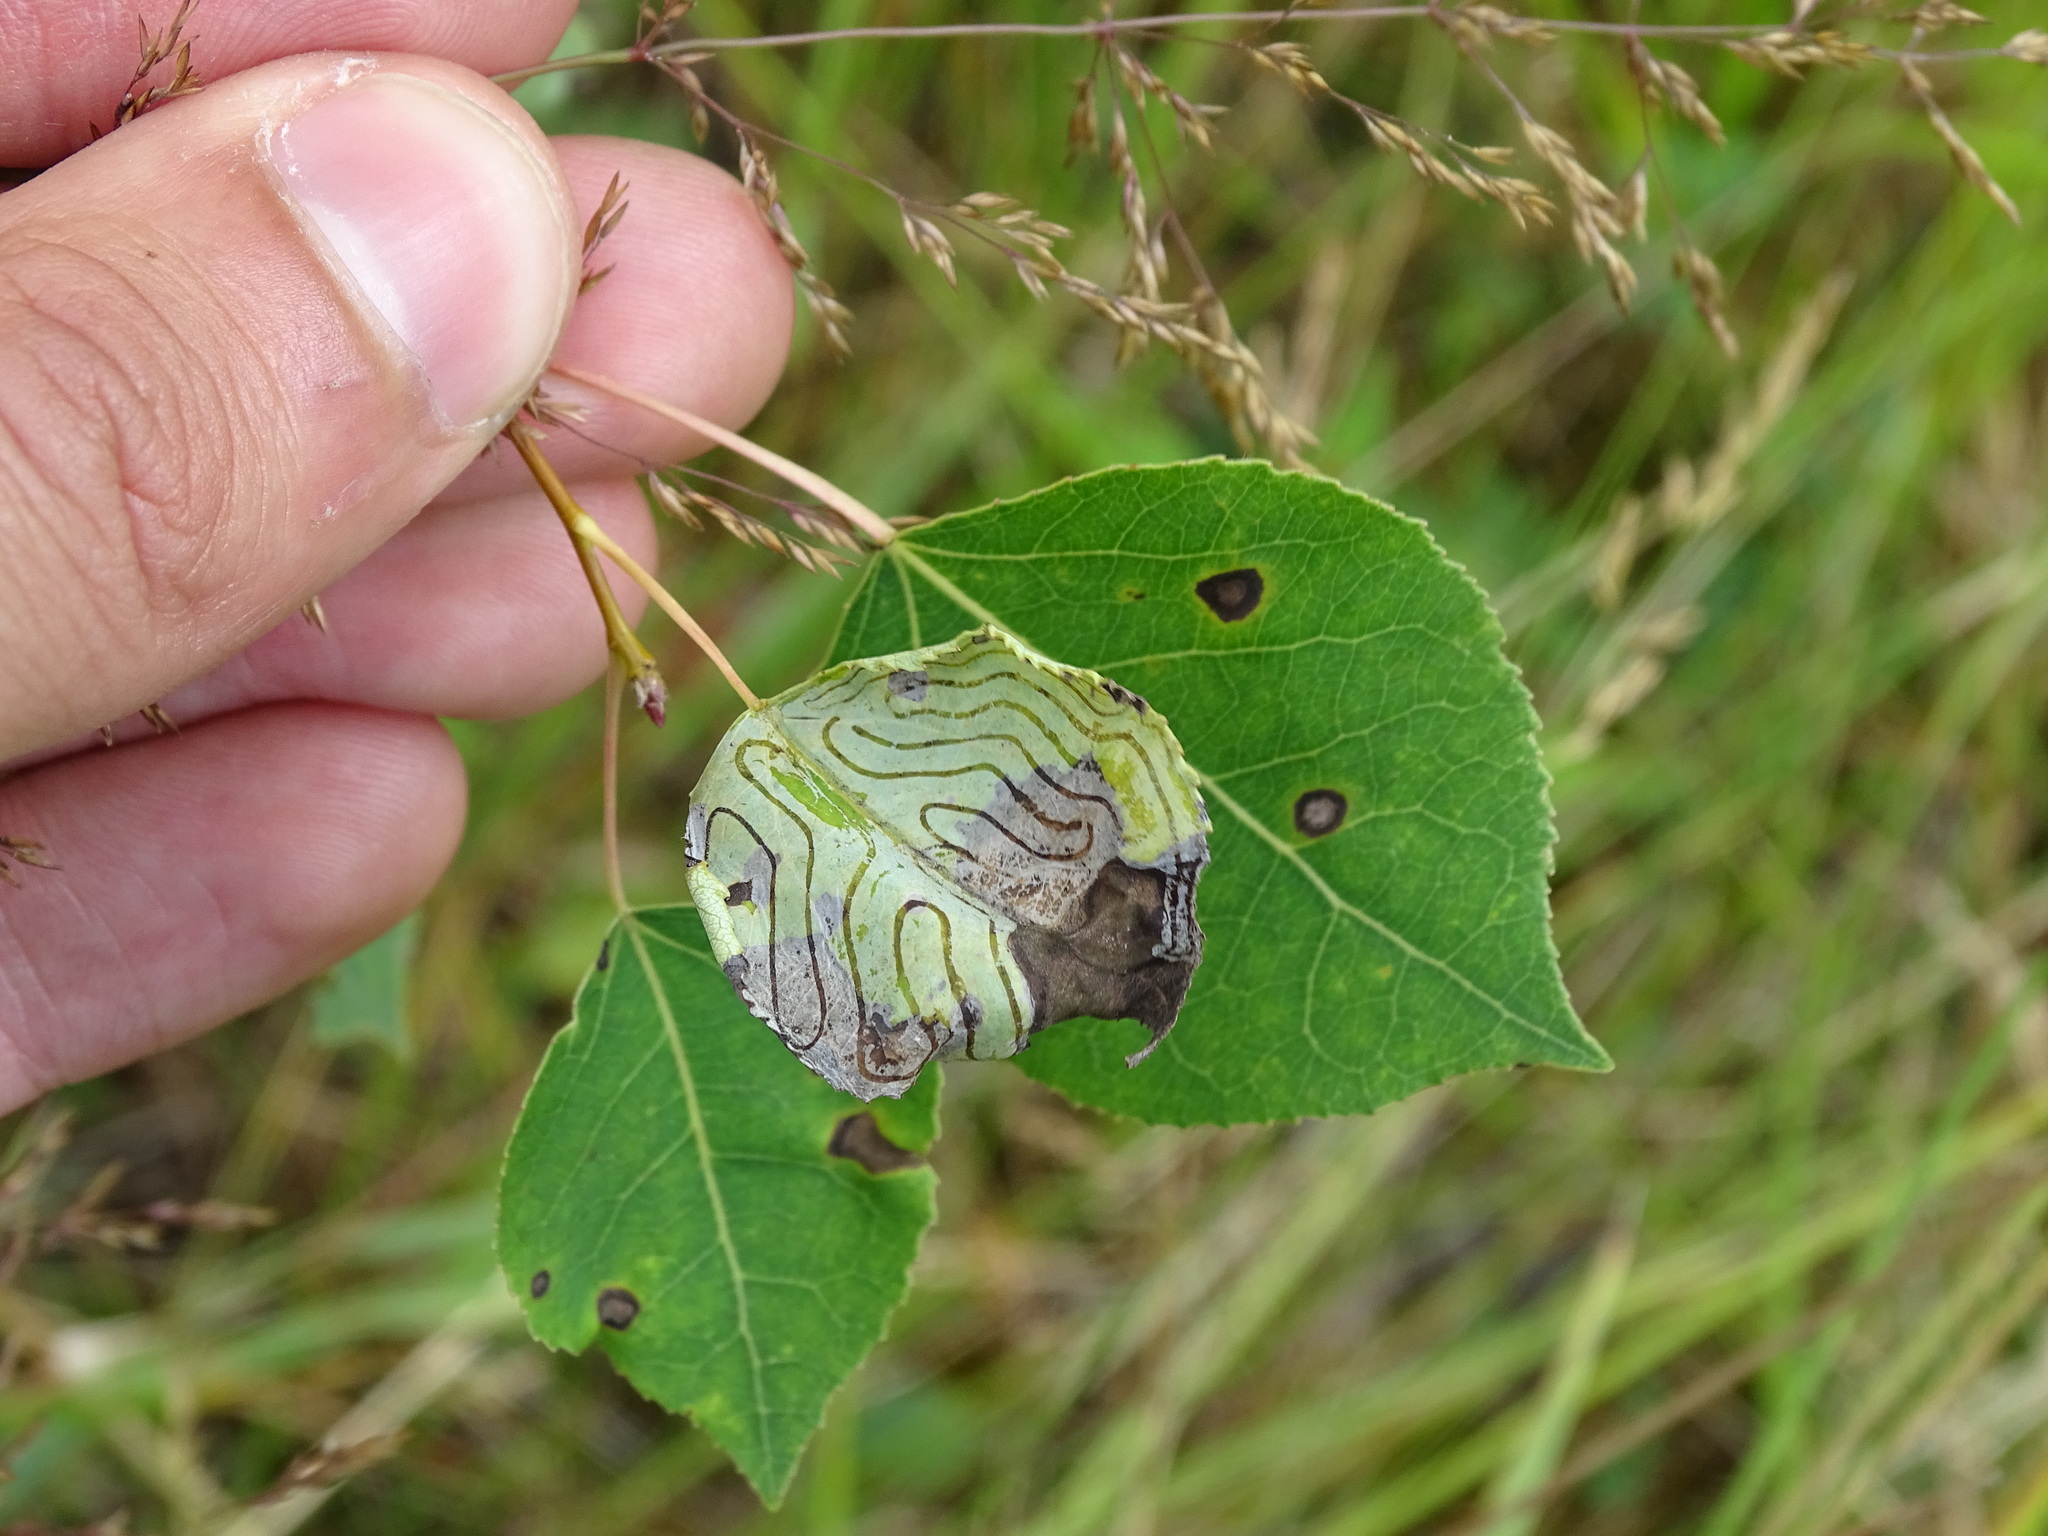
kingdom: Animalia
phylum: Arthropoda
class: Insecta
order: Lepidoptera
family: Gracillariidae
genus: Phyllocnistis
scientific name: Phyllocnistis populiella
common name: Aspen serpentine leafminer moth
